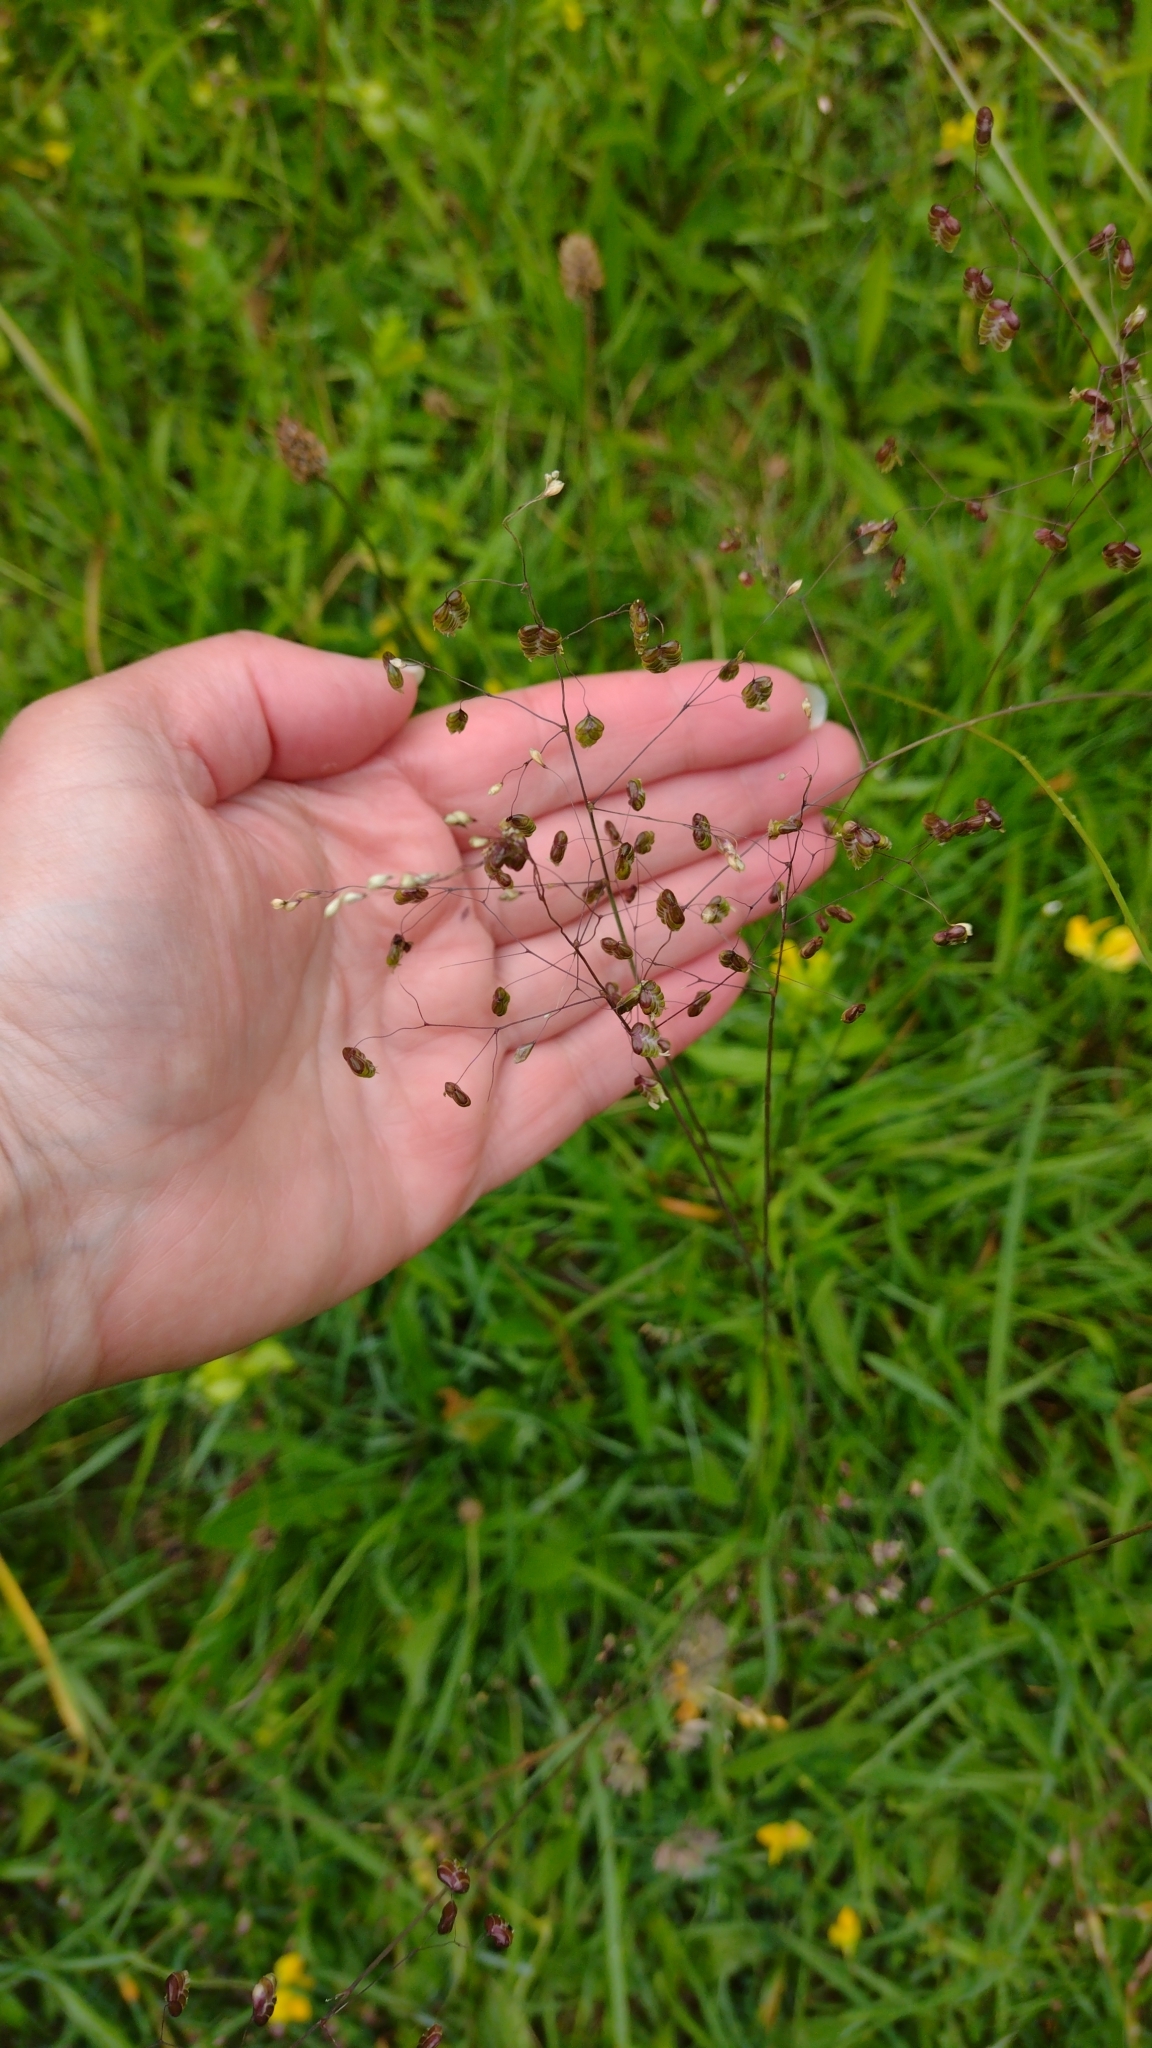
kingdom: Plantae
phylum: Tracheophyta
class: Liliopsida
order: Poales
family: Poaceae
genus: Briza
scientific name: Briza media
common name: Quaking grass
